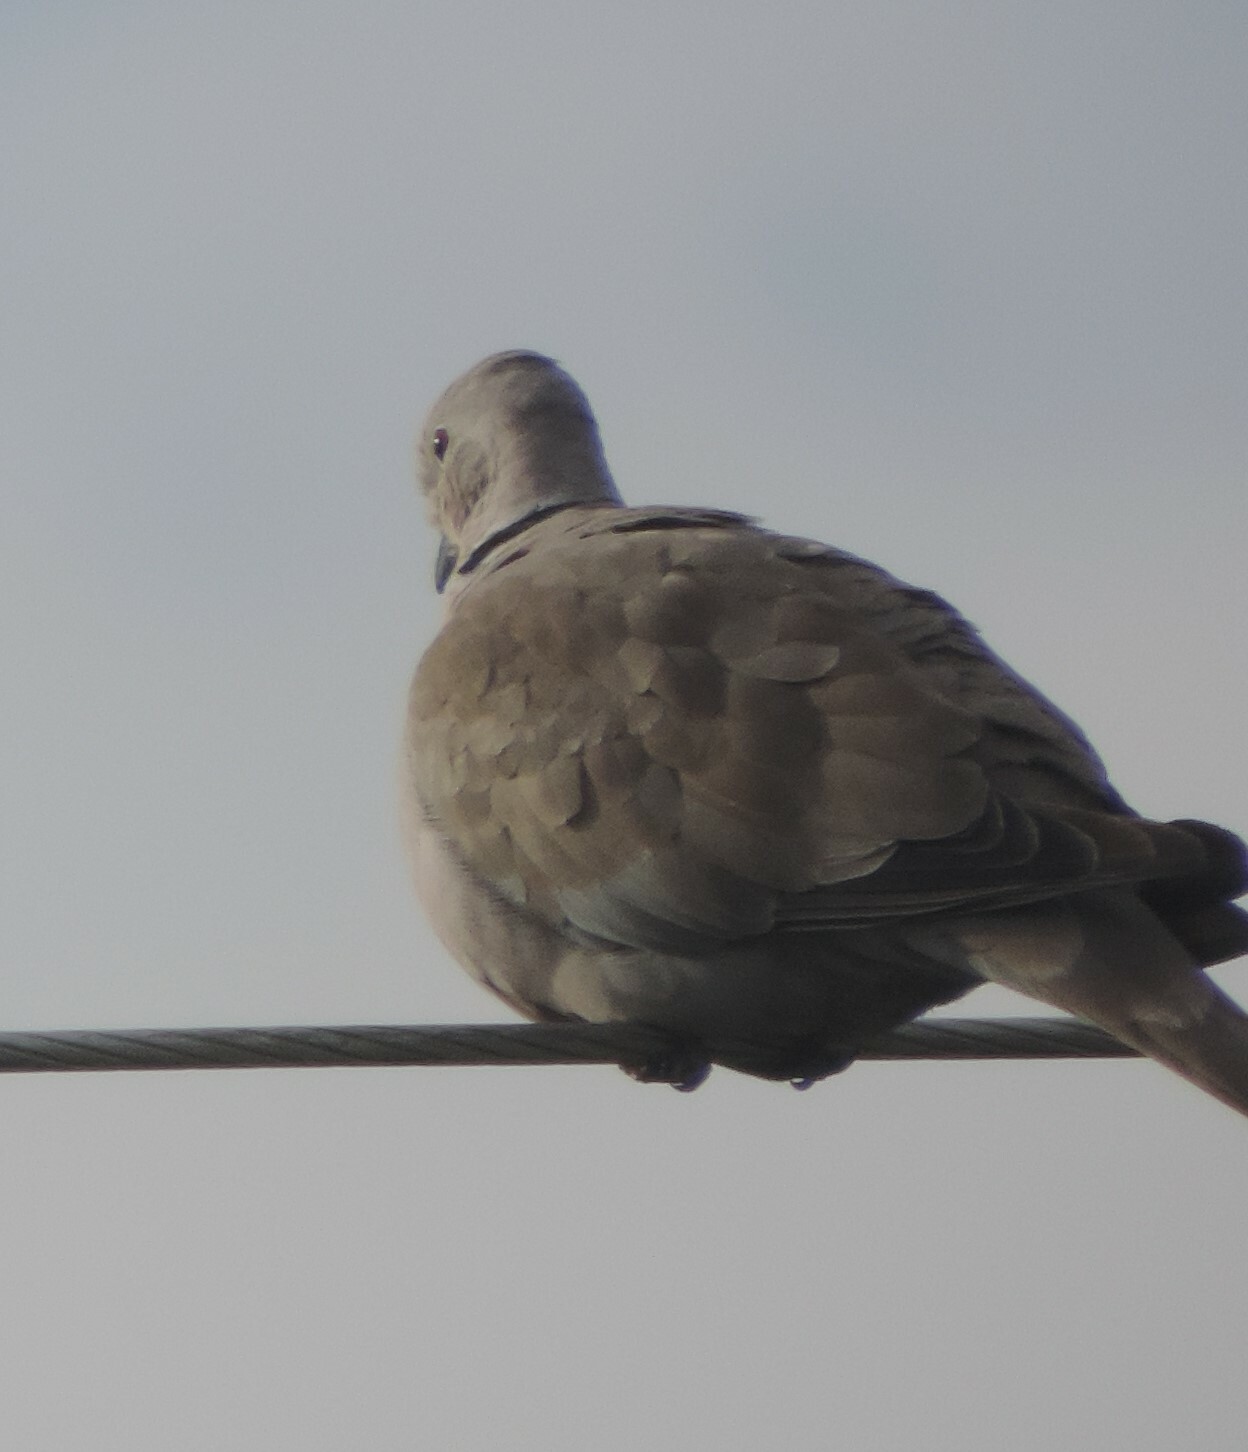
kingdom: Animalia
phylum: Chordata
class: Aves
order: Columbiformes
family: Columbidae
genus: Streptopelia
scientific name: Streptopelia decaocto
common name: Eurasian collared dove
